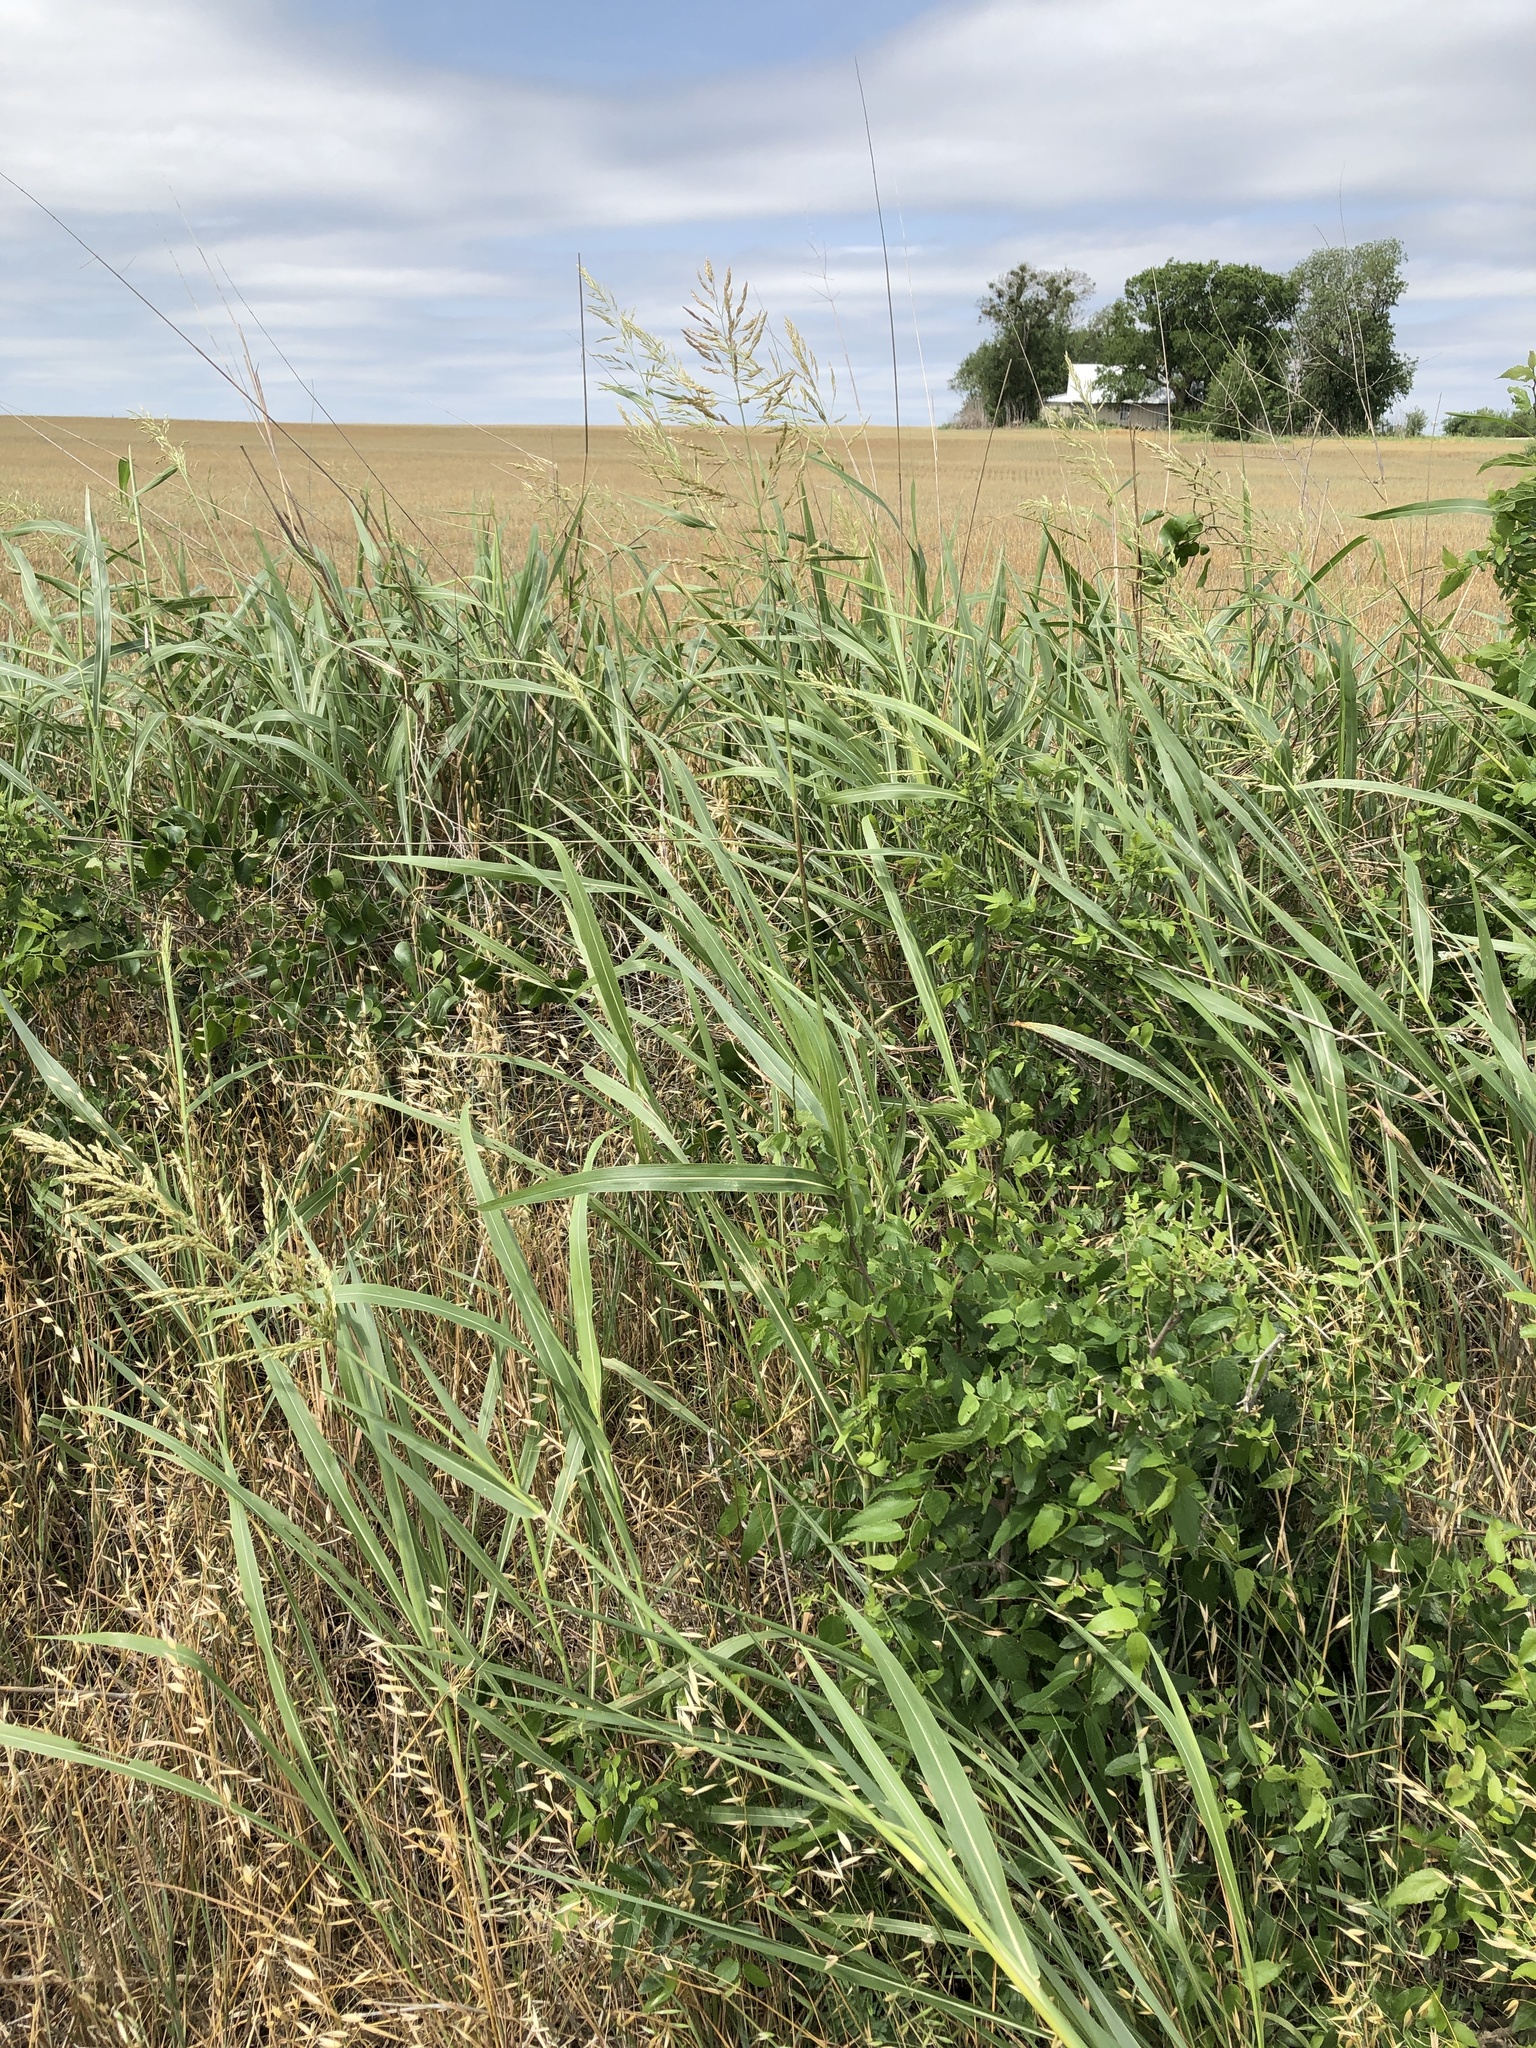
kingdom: Plantae
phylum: Tracheophyta
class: Liliopsida
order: Poales
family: Poaceae
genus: Sorghum
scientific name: Sorghum halepense
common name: Johnson-grass
